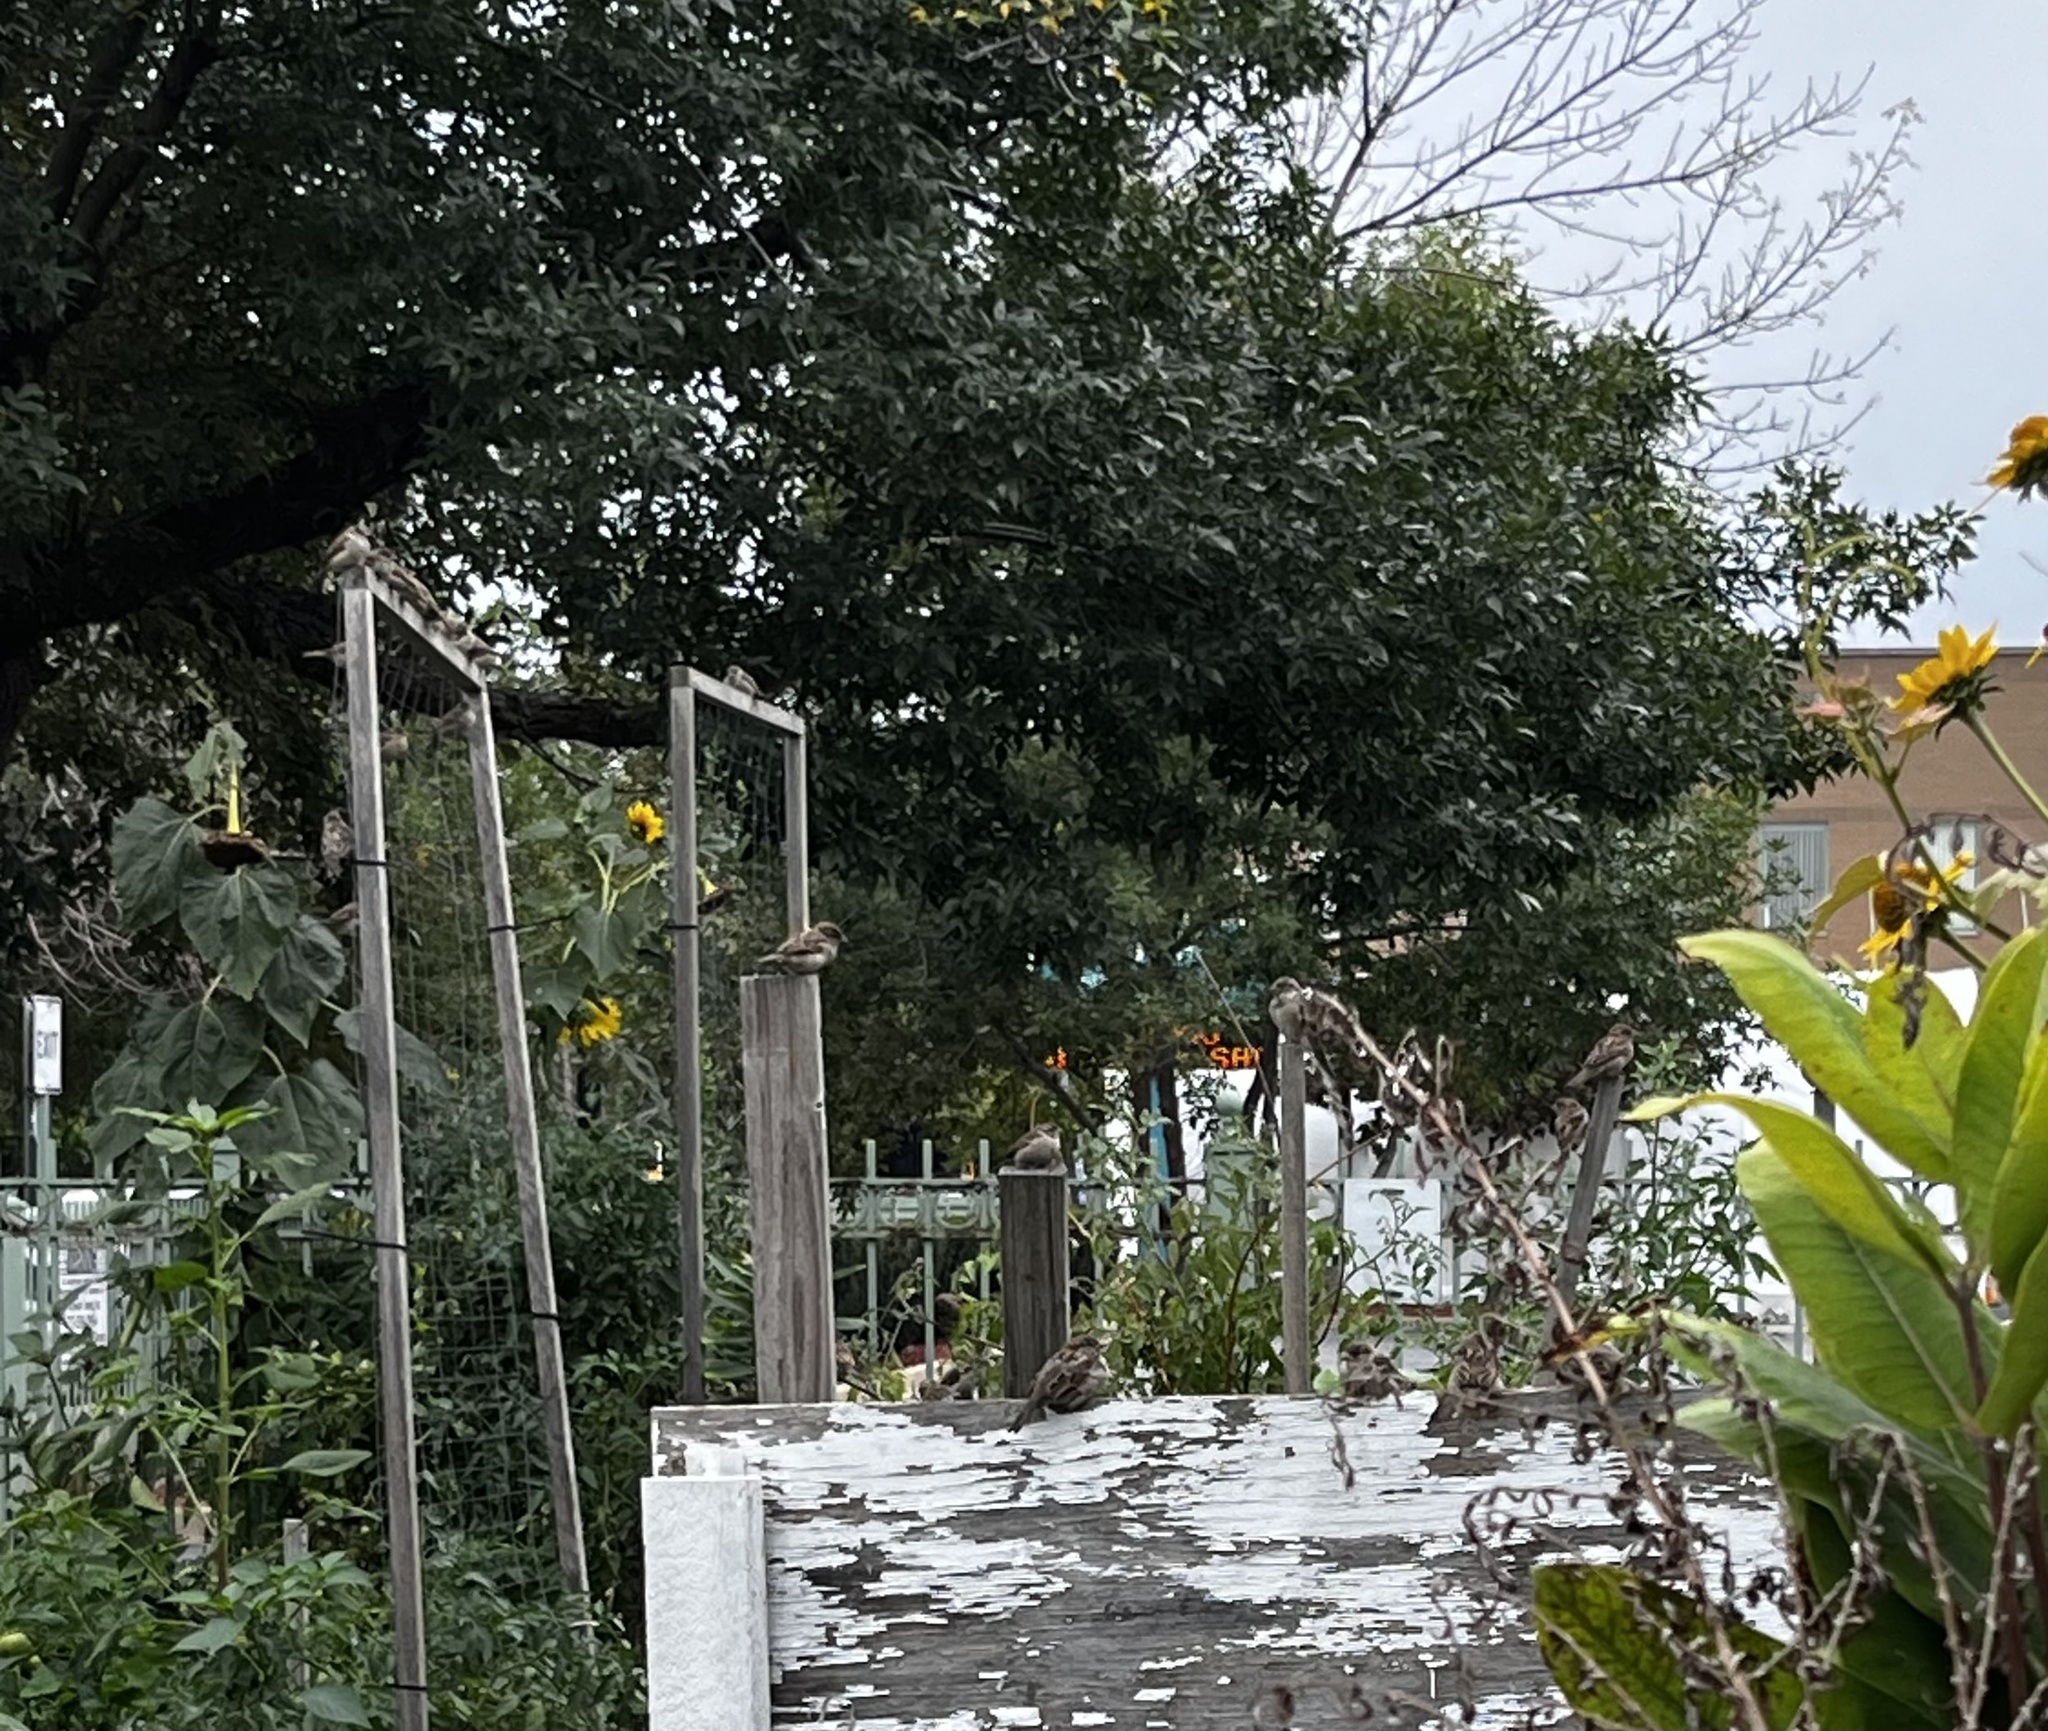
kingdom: Animalia
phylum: Chordata
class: Aves
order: Passeriformes
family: Passeridae
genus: Passer
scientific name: Passer domesticus
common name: House sparrow
